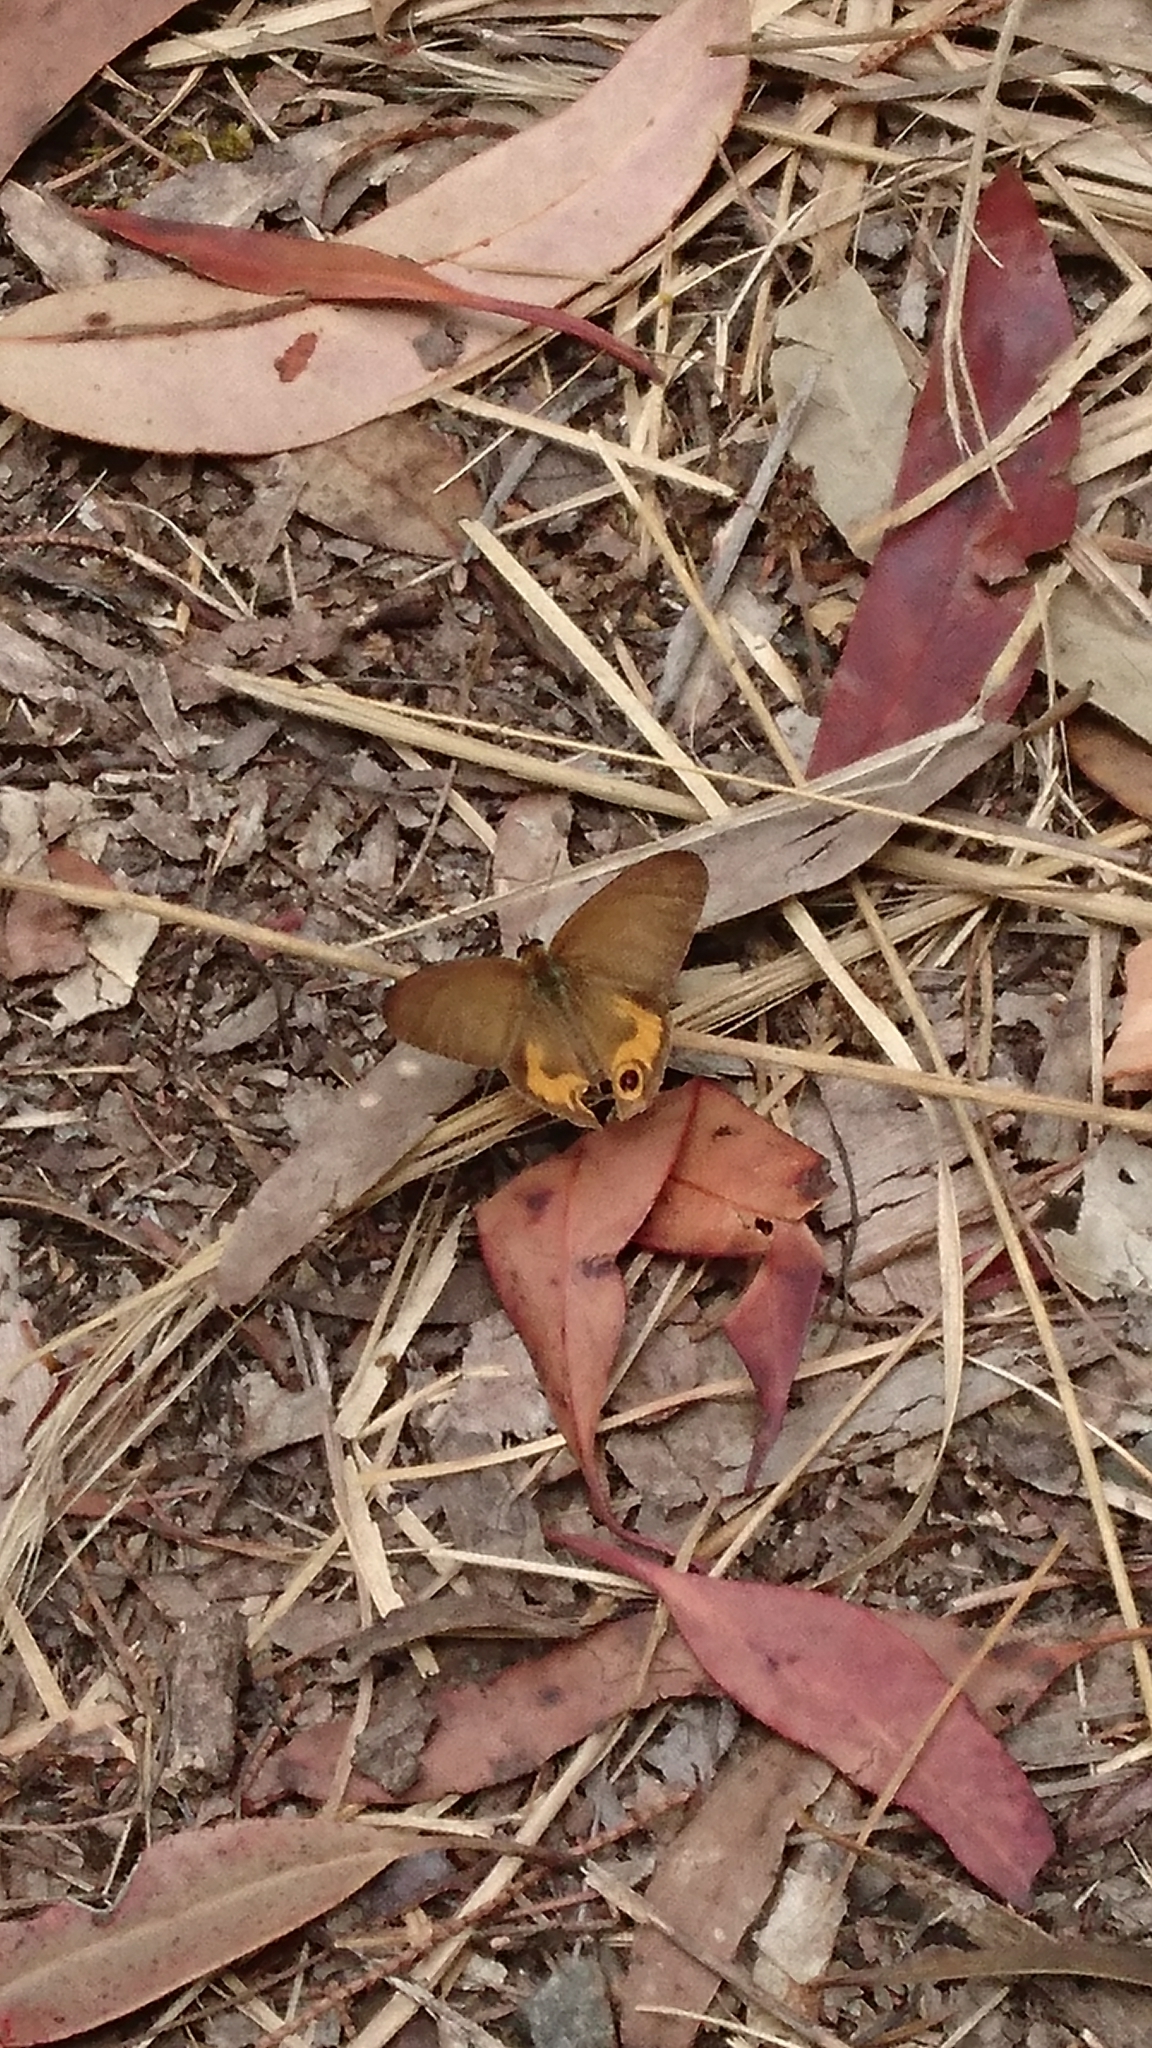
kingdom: Animalia
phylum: Arthropoda
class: Insecta
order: Lepidoptera
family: Nymphalidae
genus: Hypocysta
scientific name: Hypocysta metirius
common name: Brown ringlet
